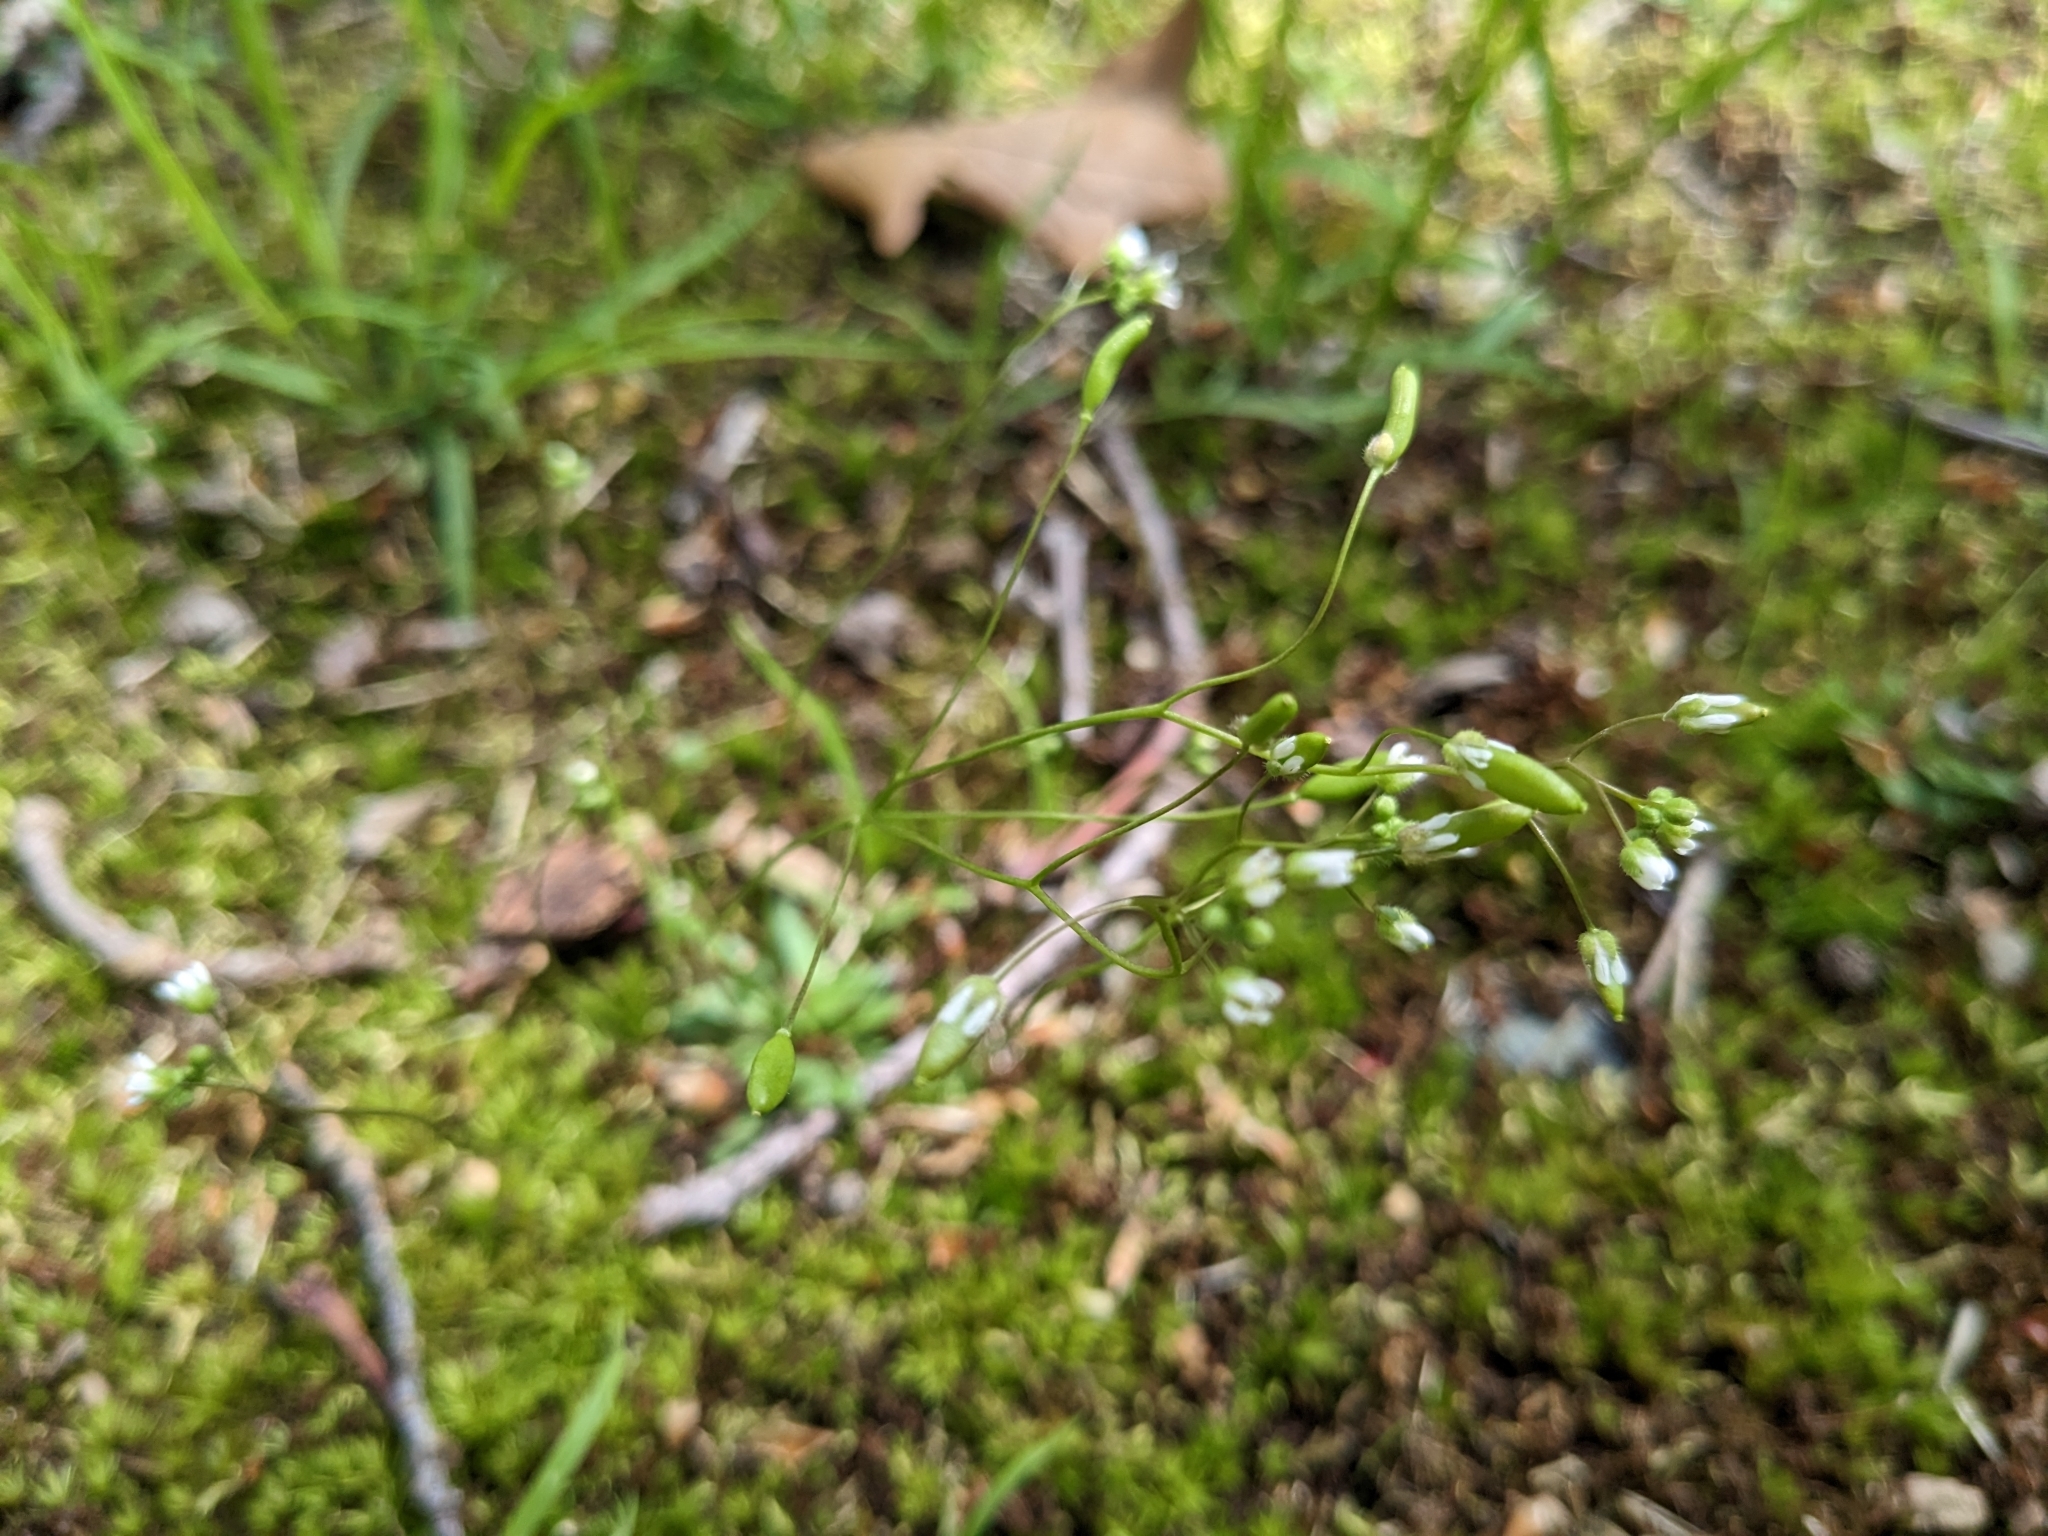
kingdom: Plantae
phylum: Tracheophyta
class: Magnoliopsida
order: Brassicales
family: Brassicaceae
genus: Draba
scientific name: Draba verna
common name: Spring draba
